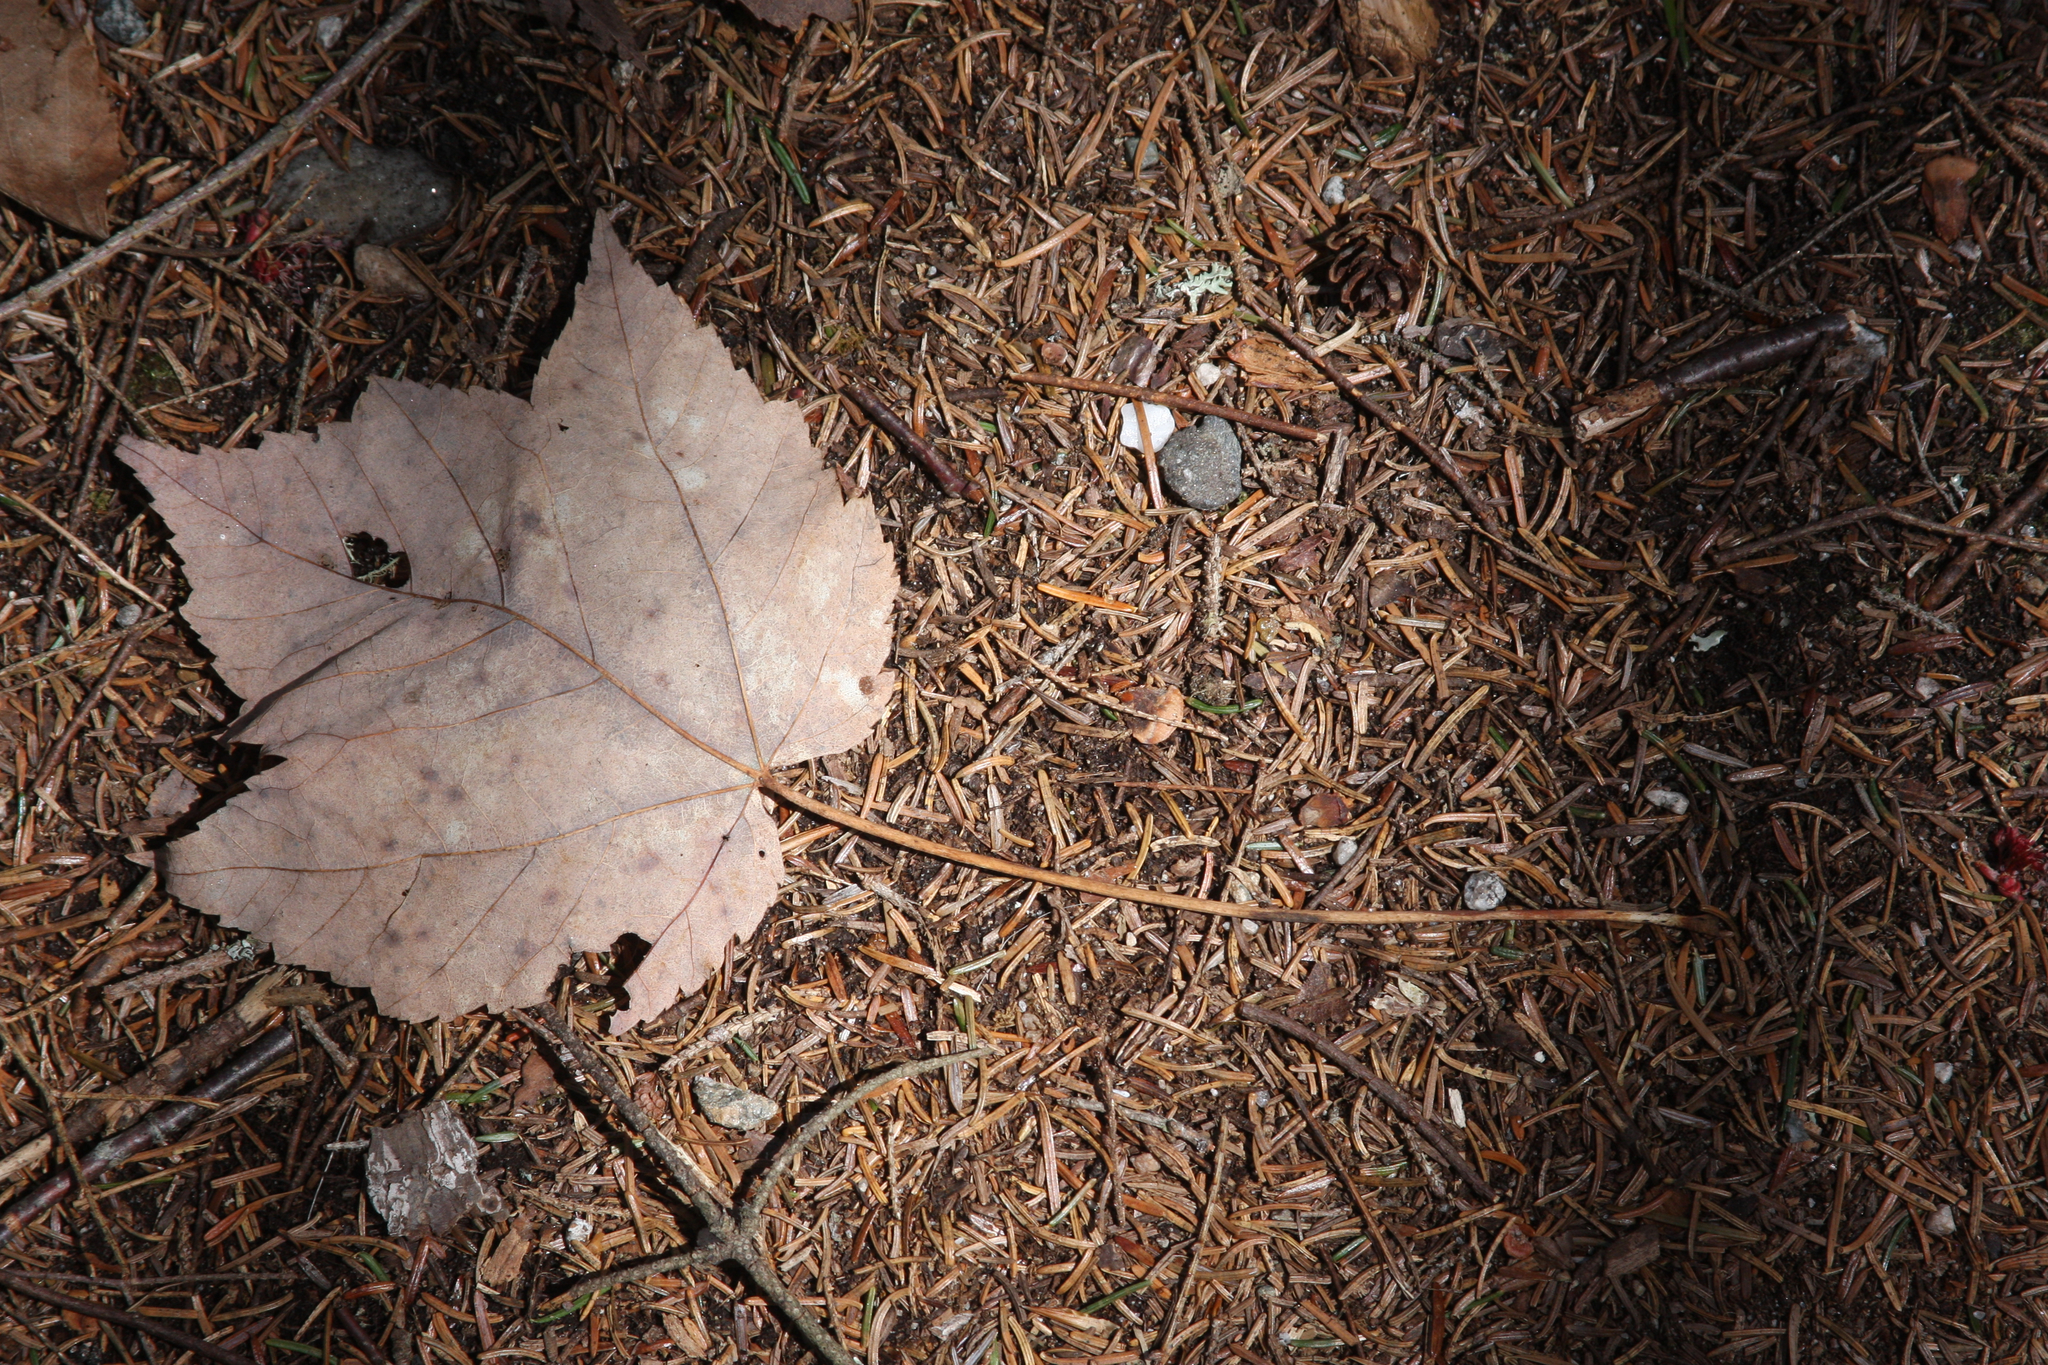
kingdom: Plantae
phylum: Tracheophyta
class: Magnoliopsida
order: Sapindales
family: Sapindaceae
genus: Acer
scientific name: Acer rubrum
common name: Red maple
